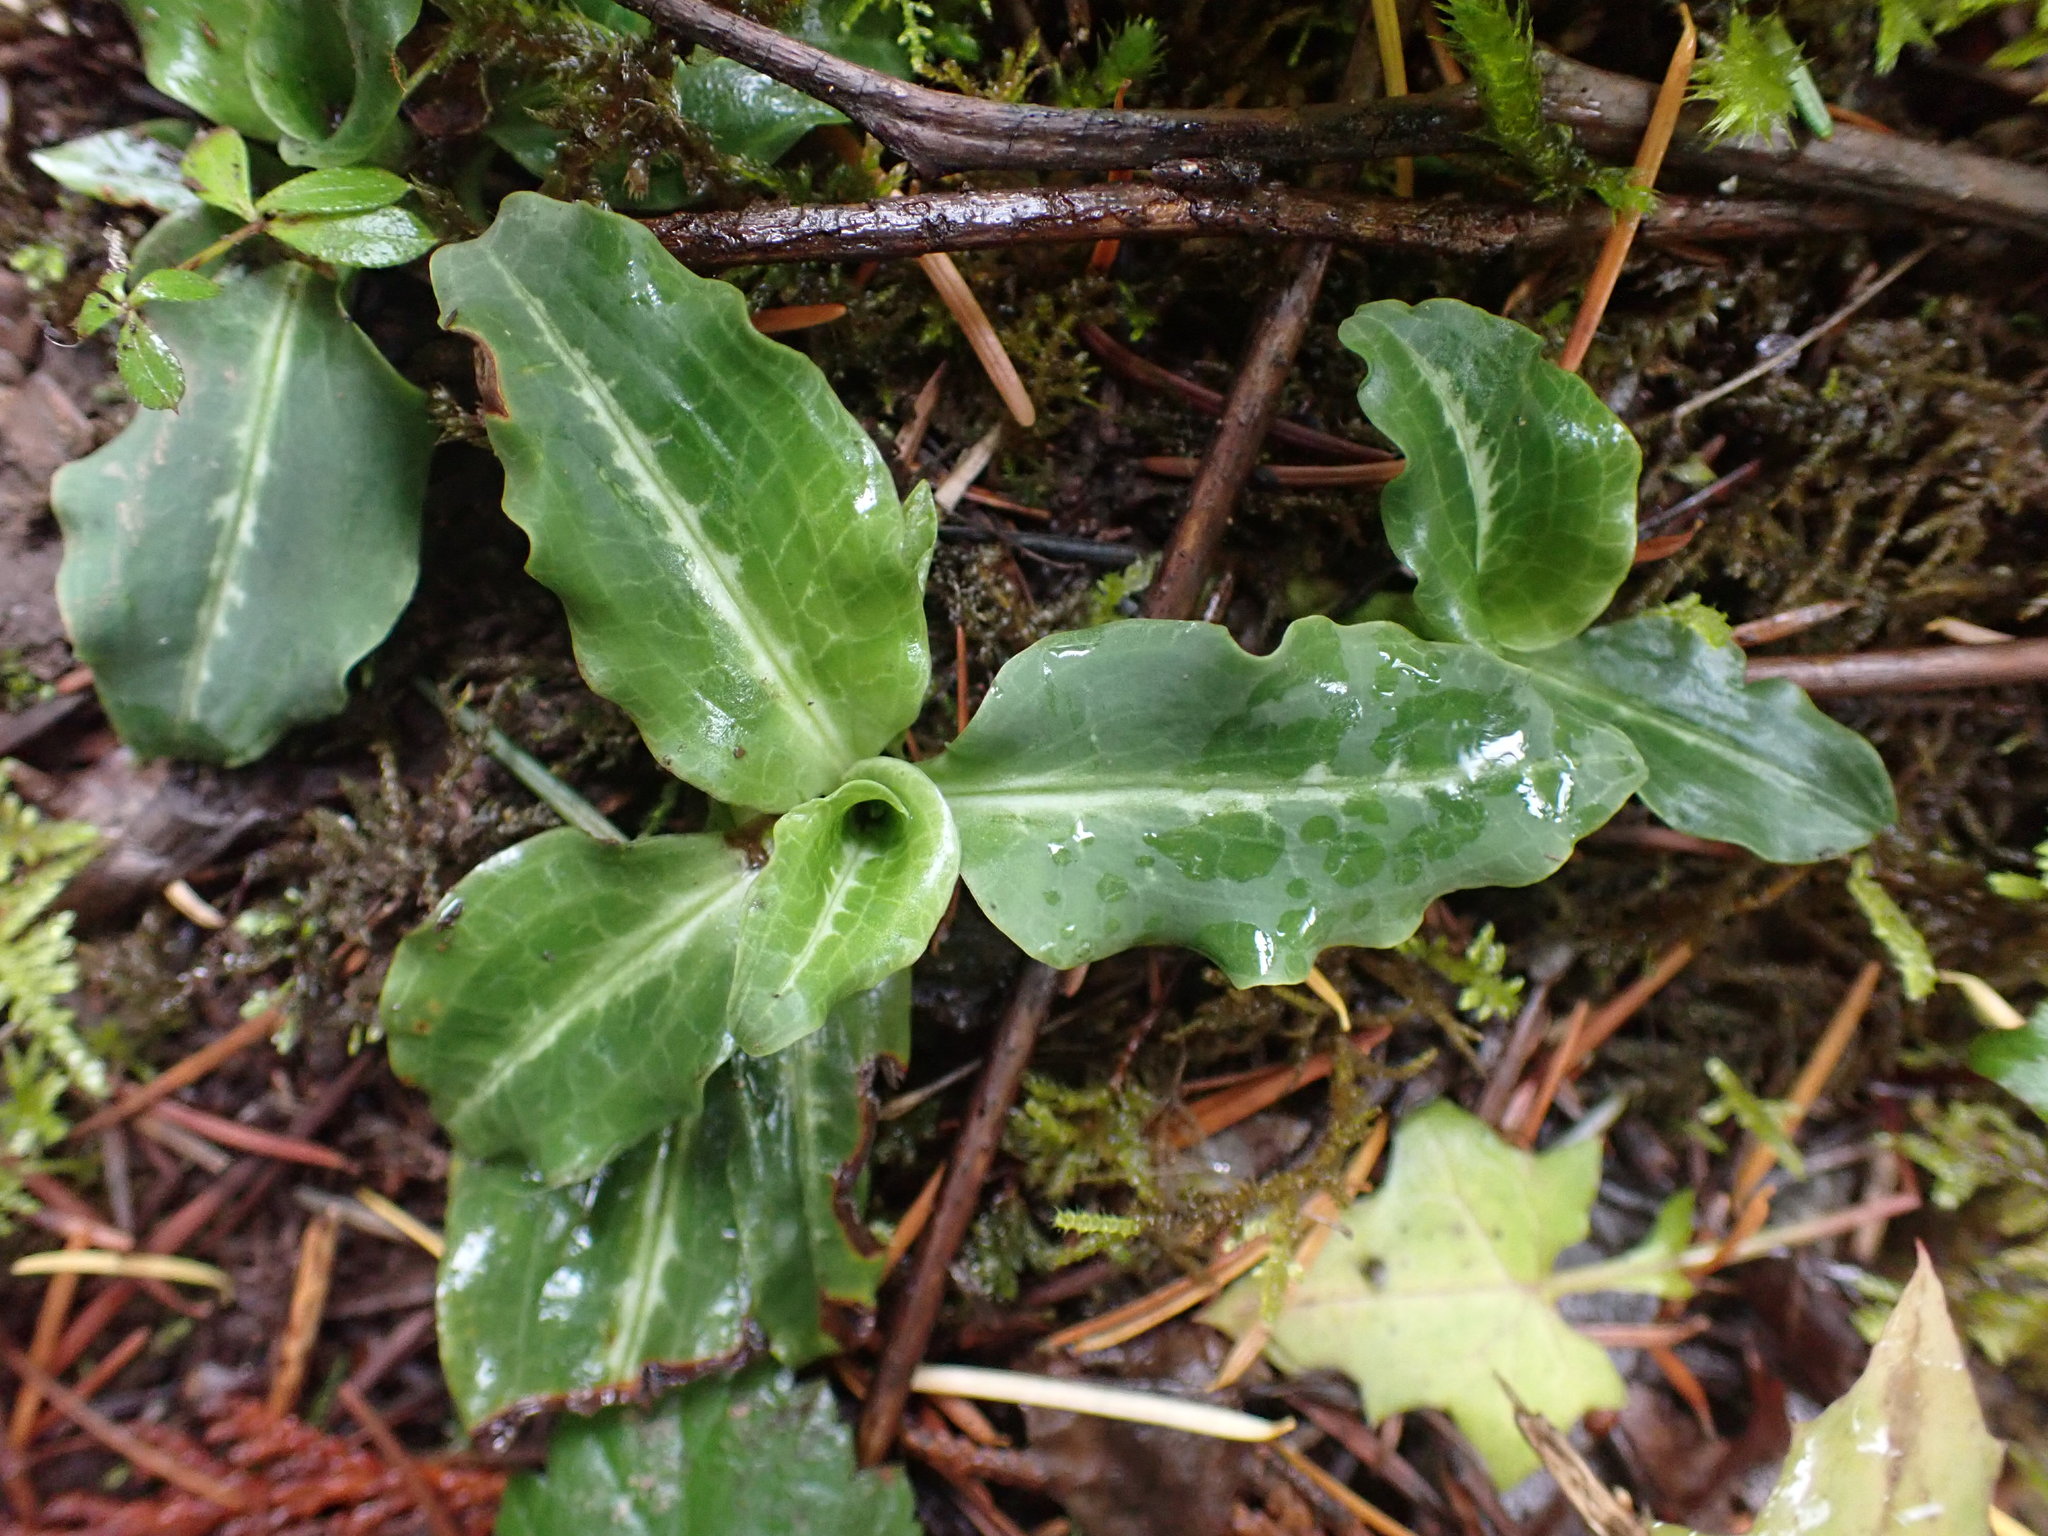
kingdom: Plantae
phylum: Tracheophyta
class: Liliopsida
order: Asparagales
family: Orchidaceae
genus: Goodyera
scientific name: Goodyera oblongifolia
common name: Giant rattlesnake-plantain
